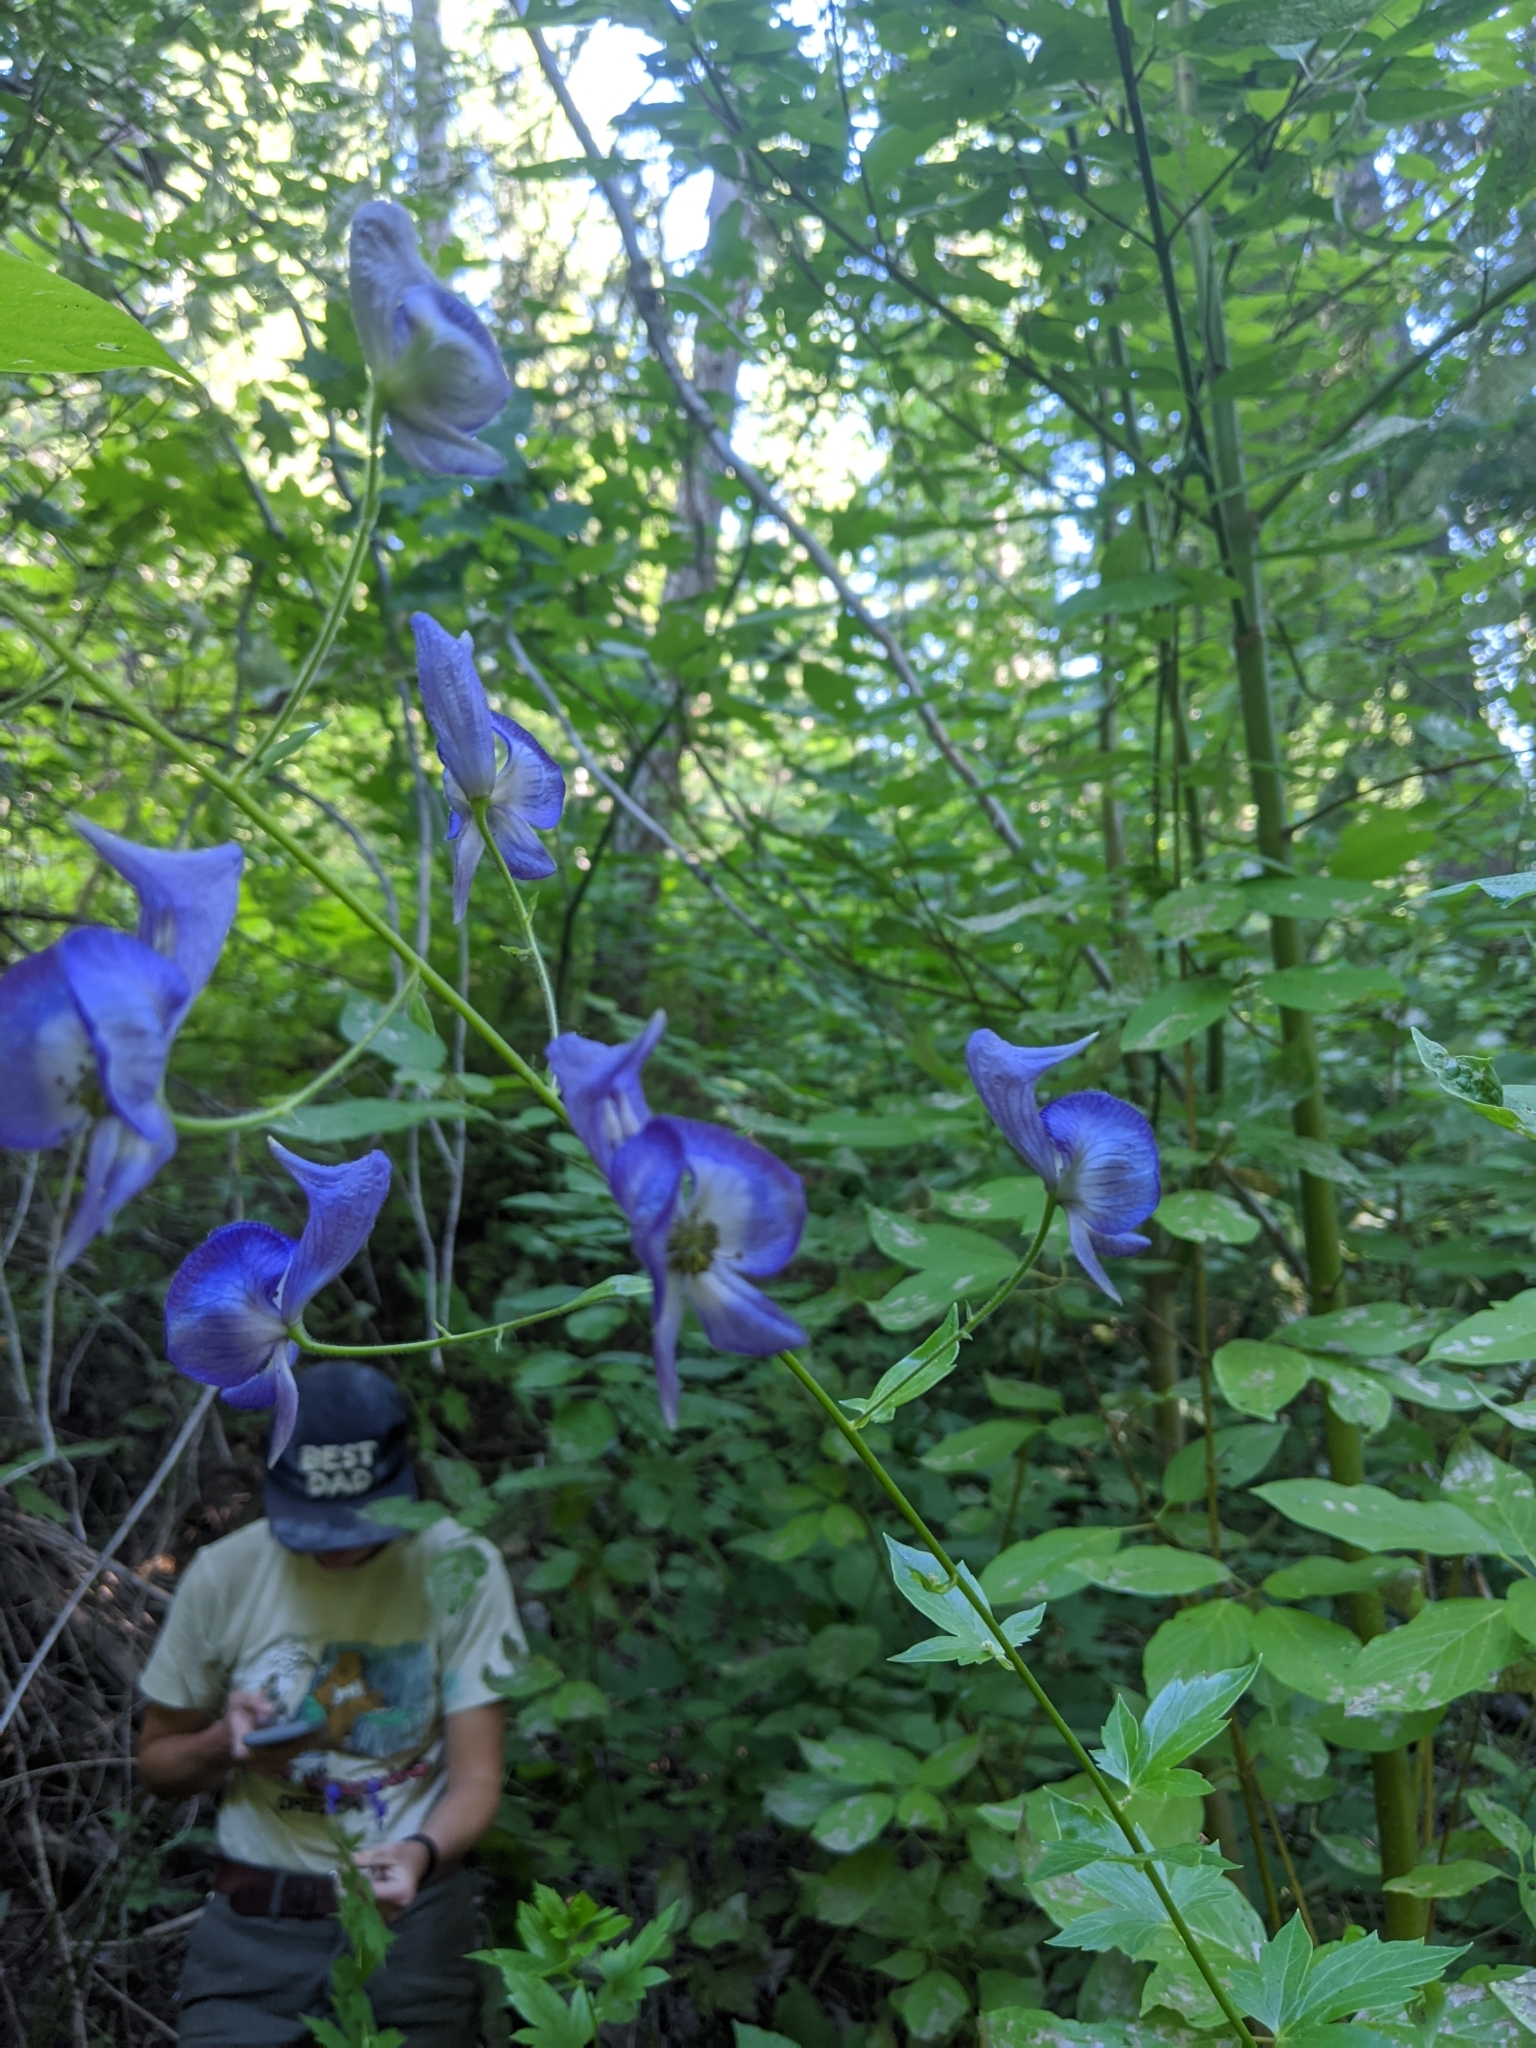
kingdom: Plantae
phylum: Tracheophyta
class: Magnoliopsida
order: Ranunculales
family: Ranunculaceae
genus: Aconitum
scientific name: Aconitum columbianum
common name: Columbia aconite
